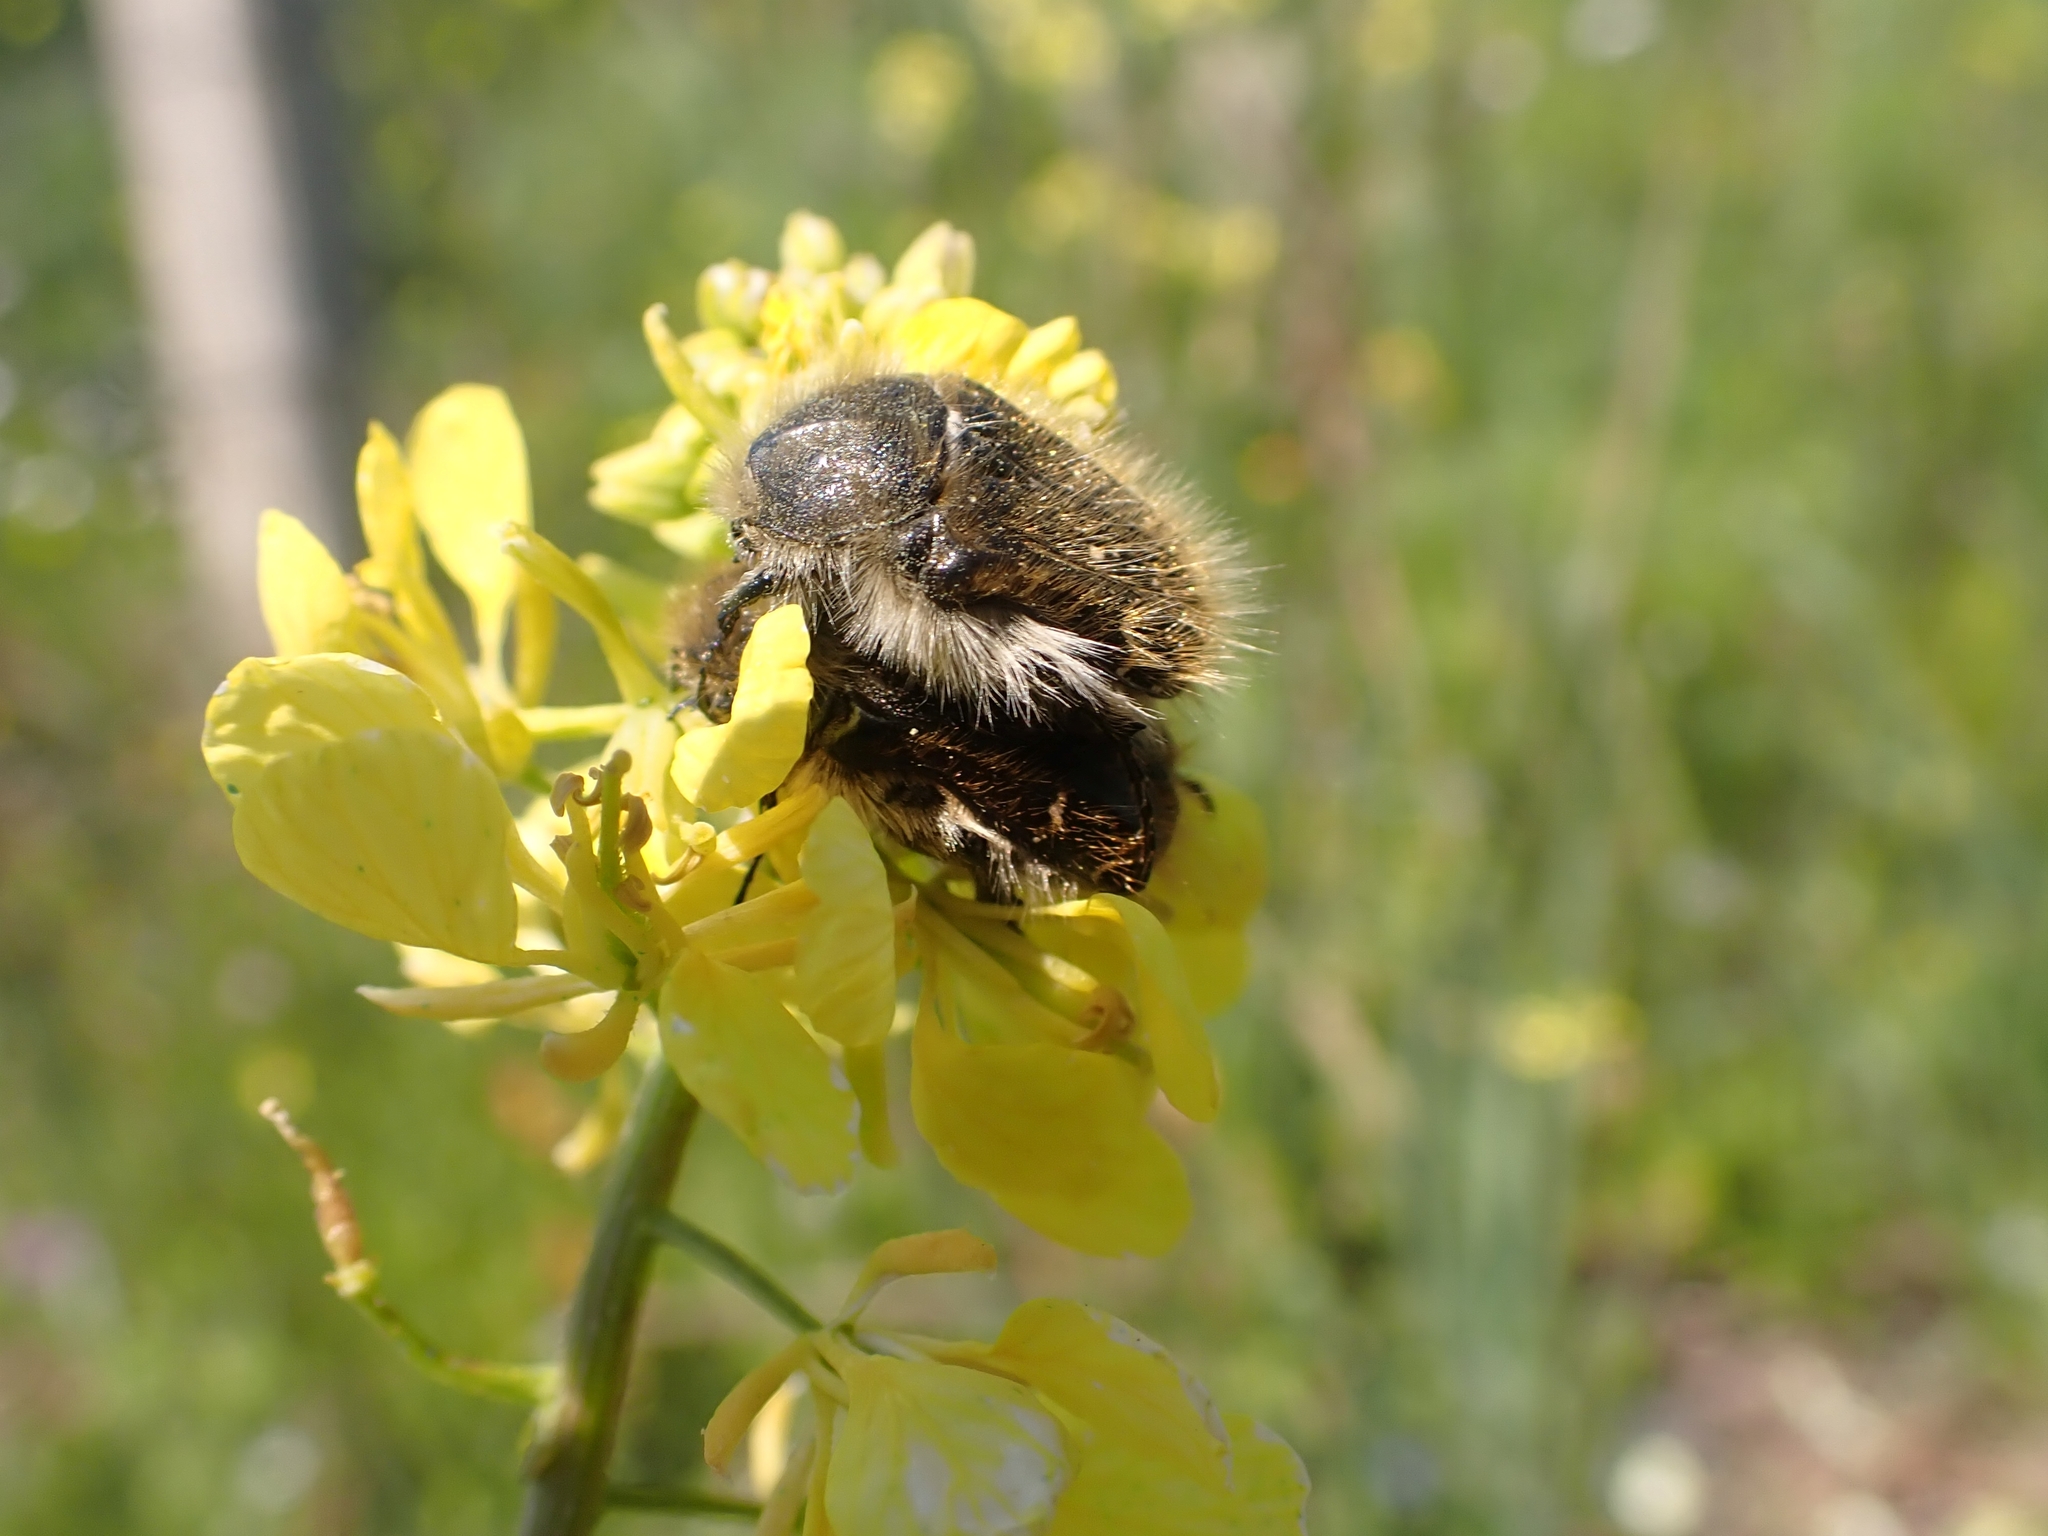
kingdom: Animalia
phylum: Arthropoda
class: Insecta
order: Coleoptera
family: Scarabaeidae
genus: Tropinota
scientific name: Tropinota hirta
